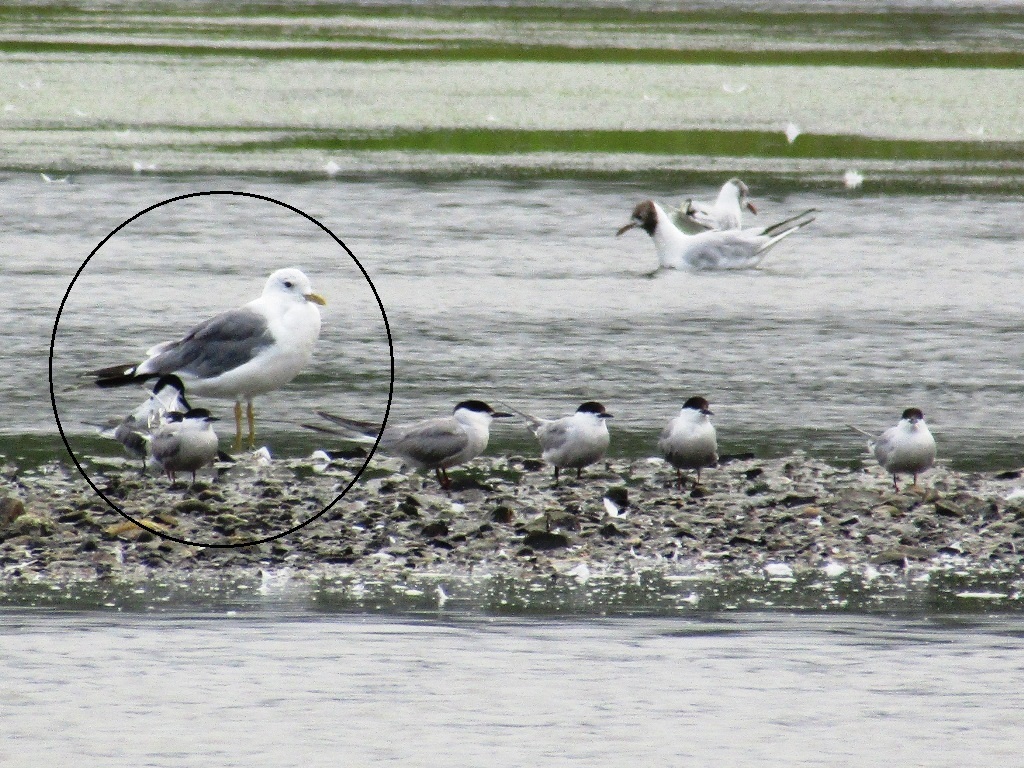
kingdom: Animalia
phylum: Chordata
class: Aves
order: Charadriiformes
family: Laridae
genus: Larus
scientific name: Larus canus
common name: Mew gull
